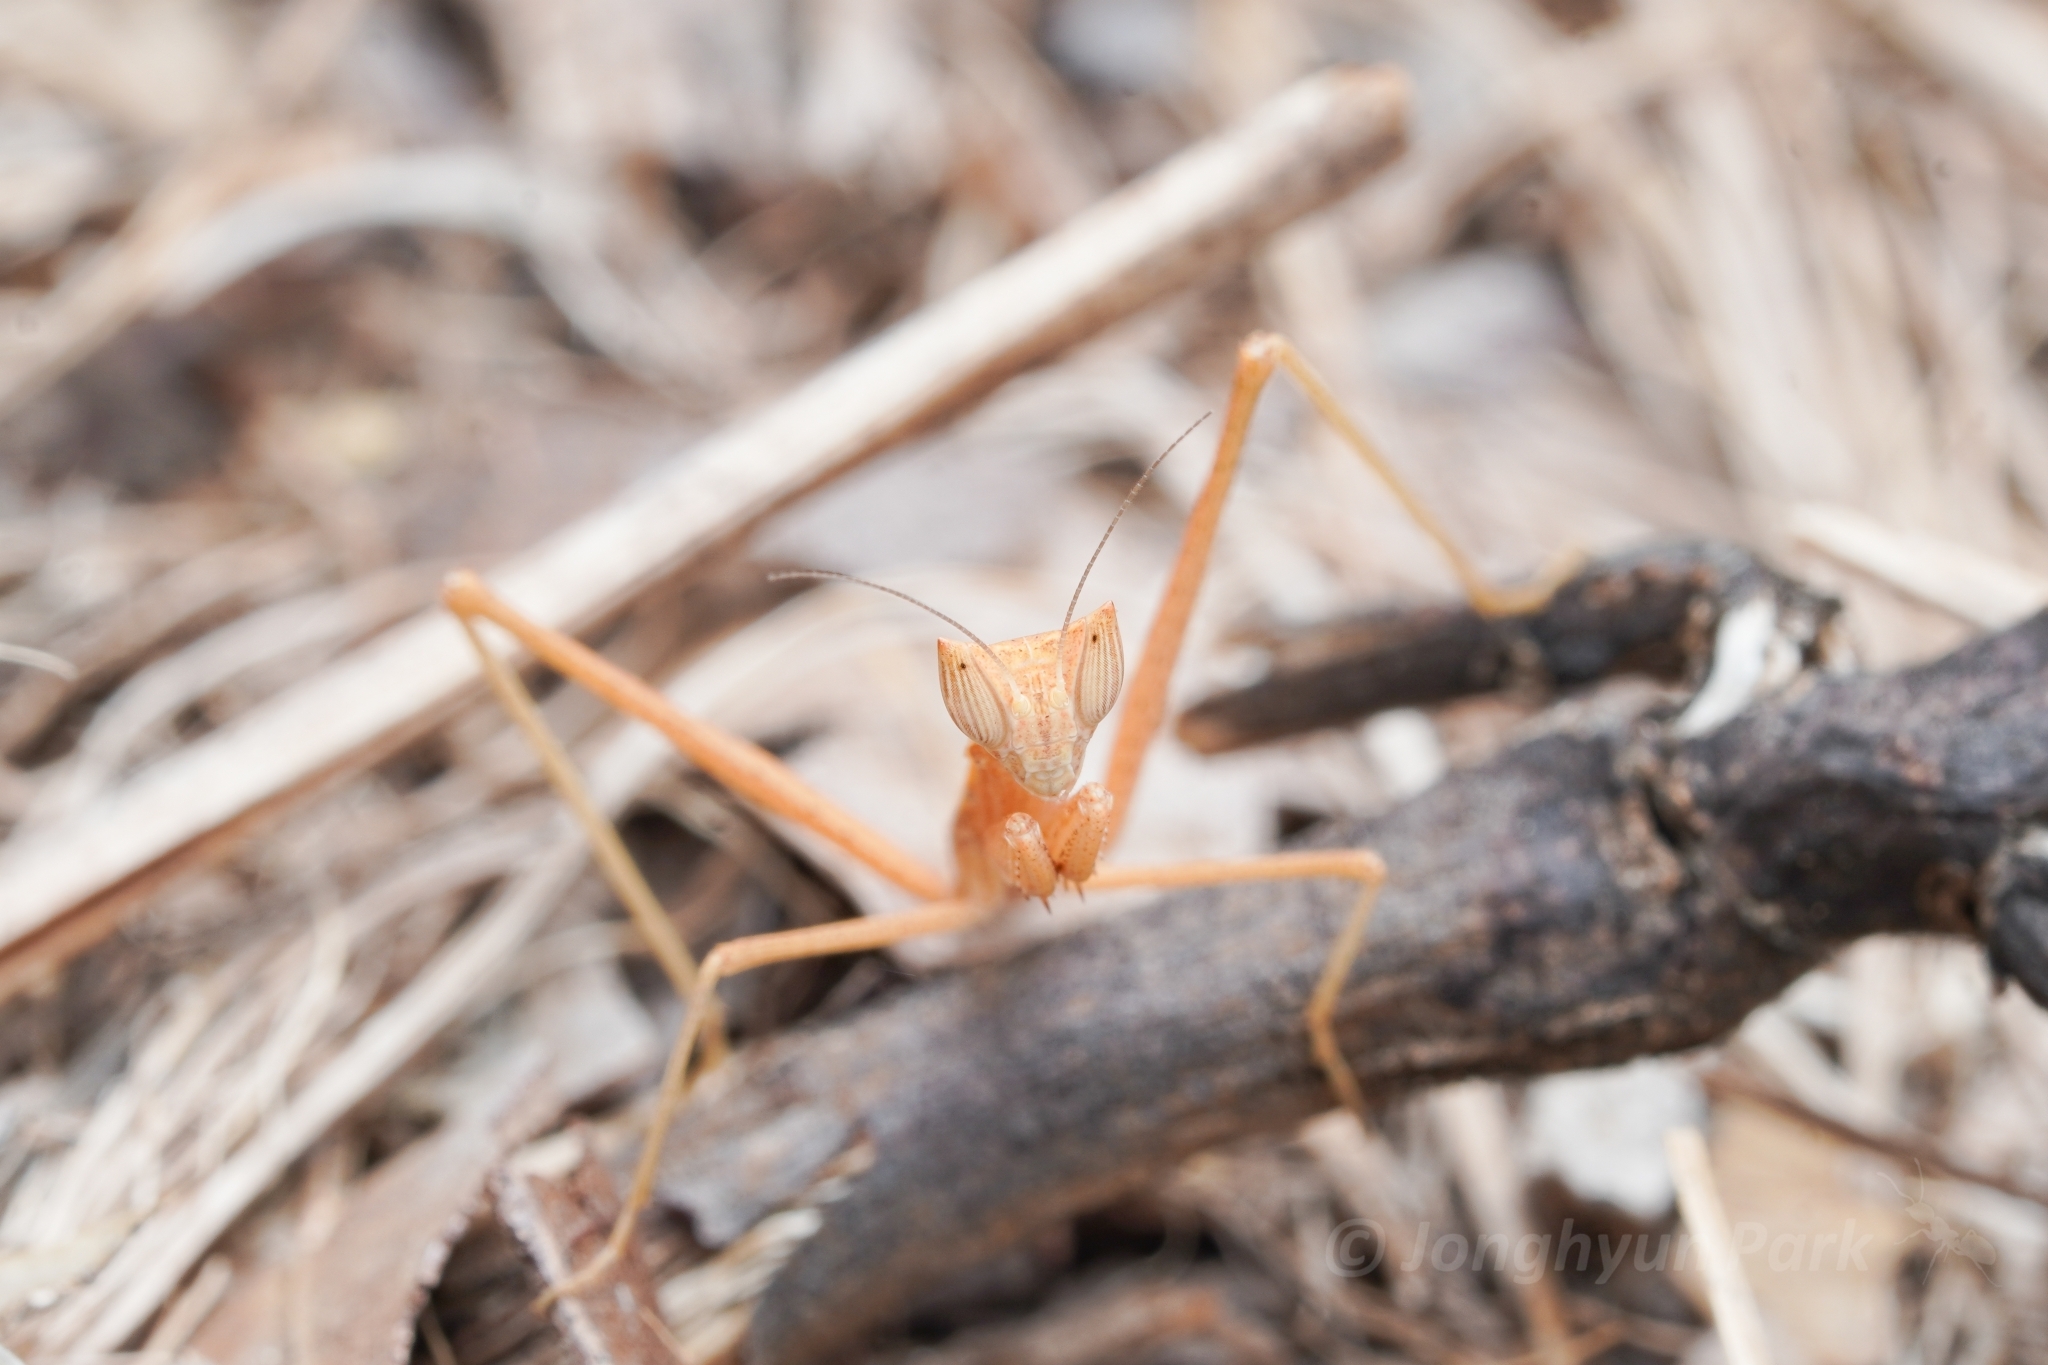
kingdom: Animalia
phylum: Arthropoda
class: Insecta
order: Mantodea
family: Amelidae
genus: Yersiniops
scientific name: Yersiniops solitarius
